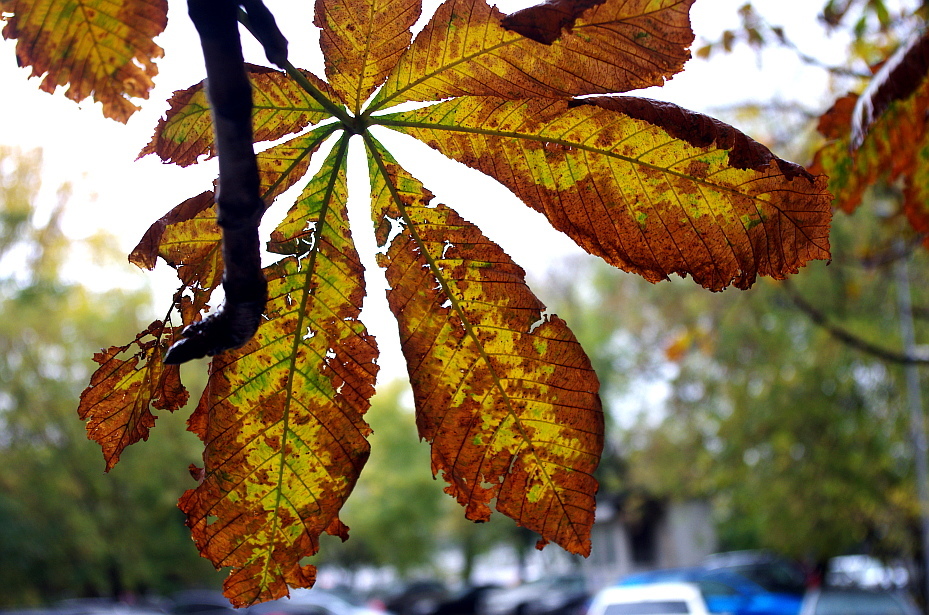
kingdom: Fungi
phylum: Ascomycota
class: Dothideomycetes
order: Botryosphaeriales
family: Phyllostictaceae
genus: Phyllosticta
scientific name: Phyllosticta paviae
